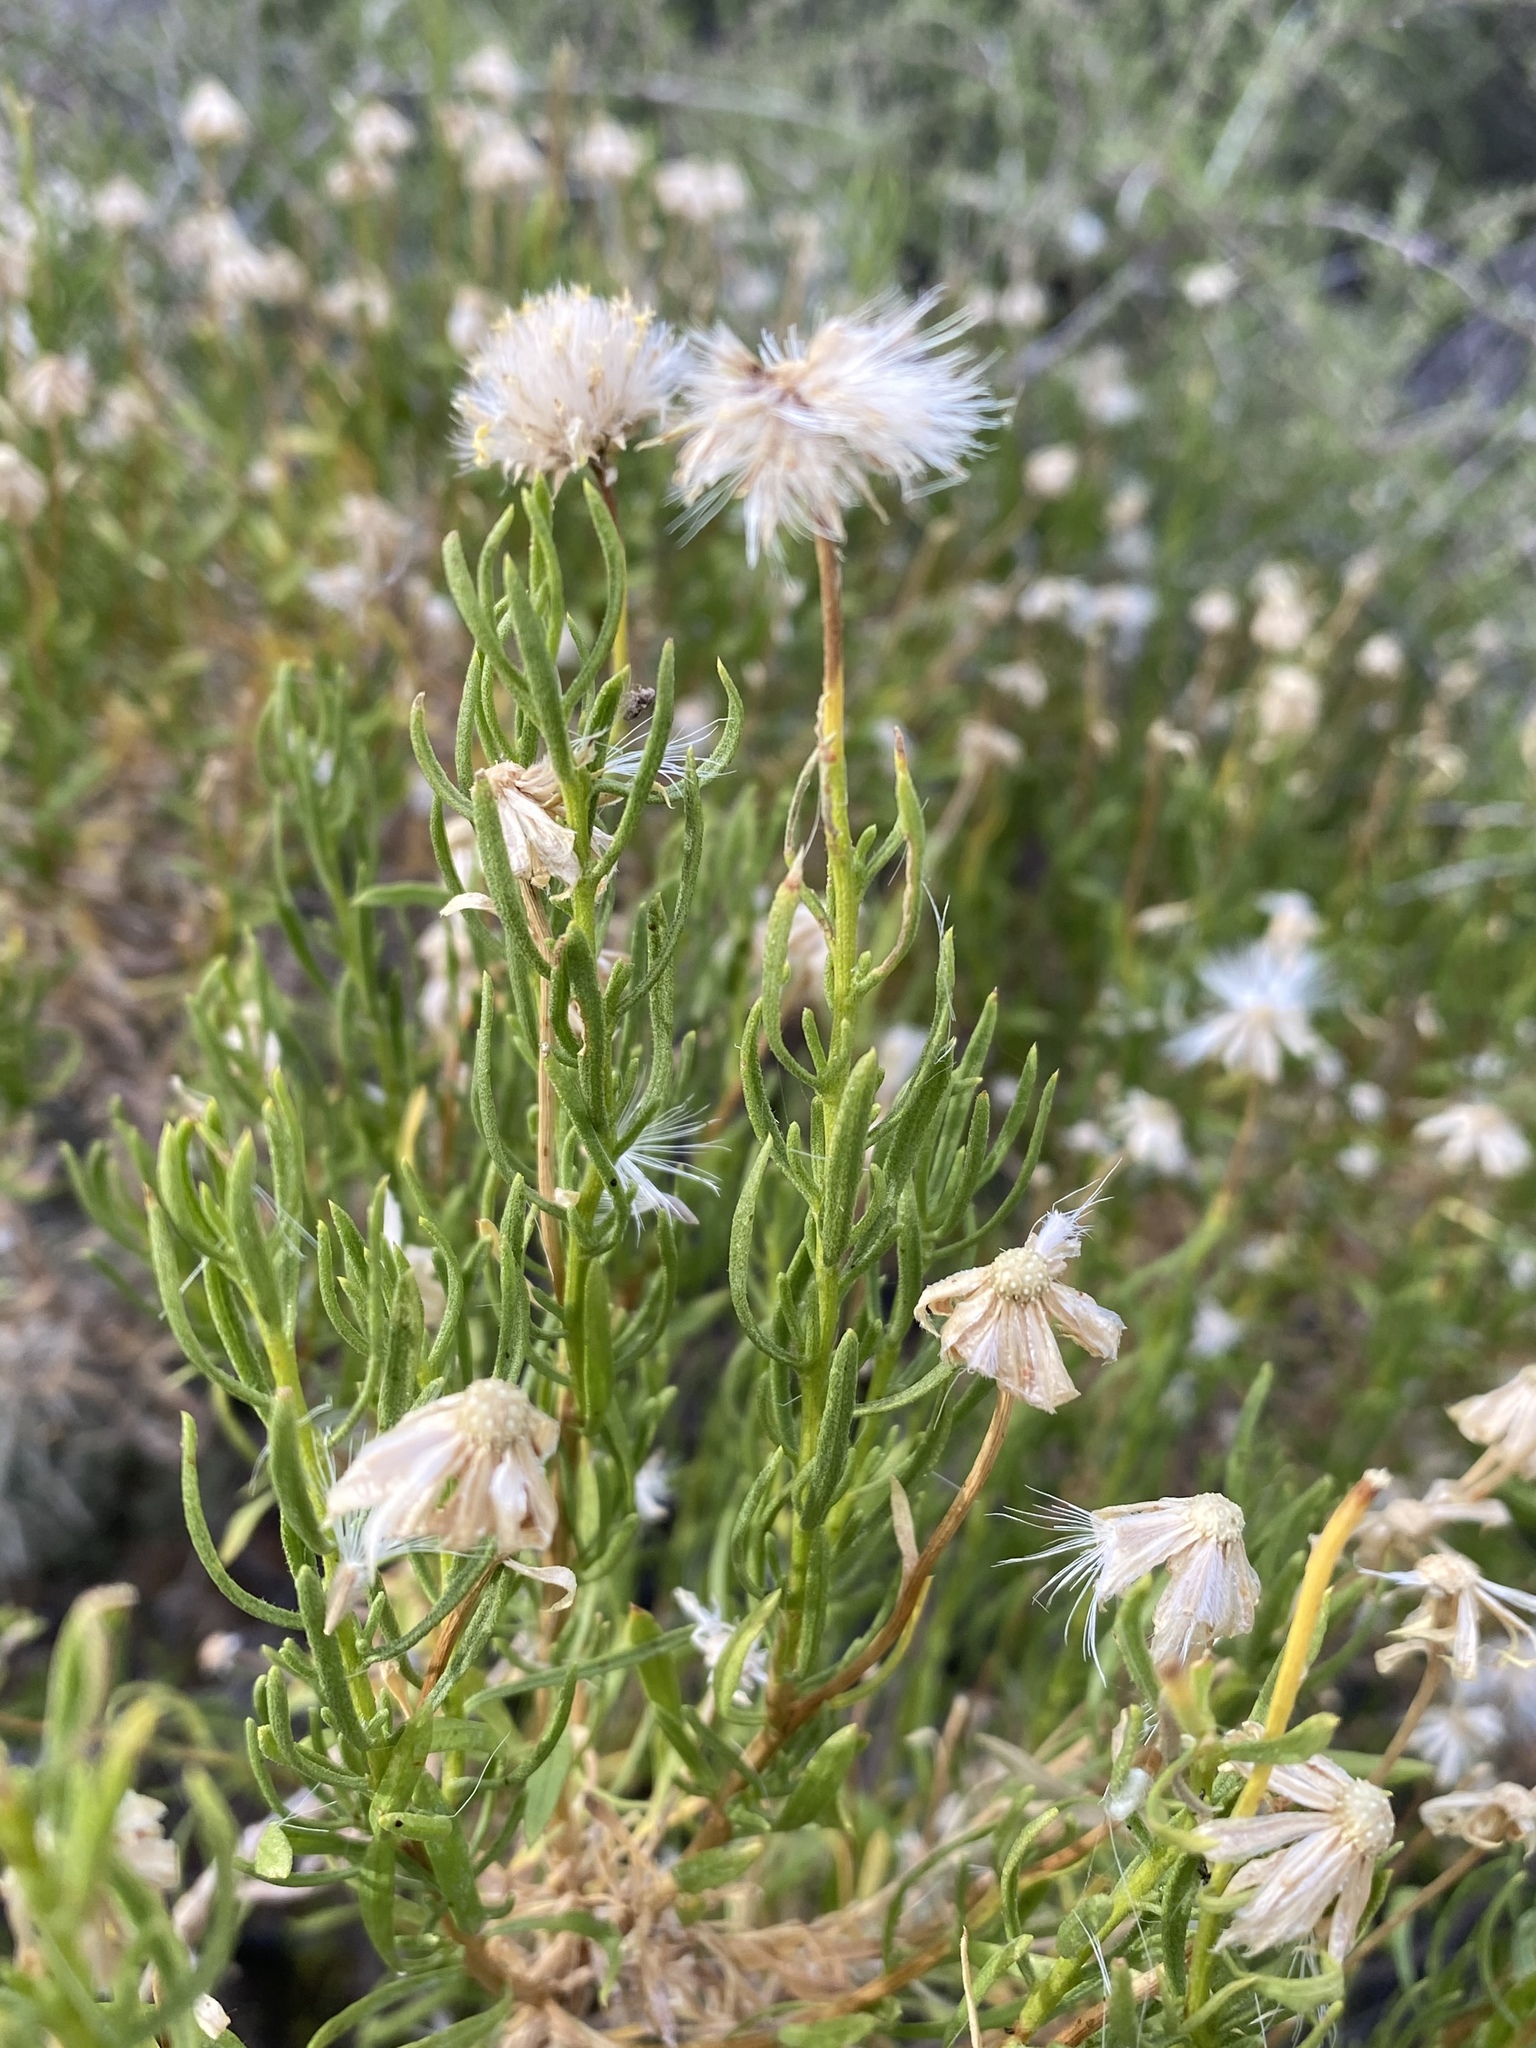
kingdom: Plantae
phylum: Tracheophyta
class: Magnoliopsida
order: Asterales
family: Asteraceae
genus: Ericameria
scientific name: Ericameria linearifolia
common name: Interior goldenbush
